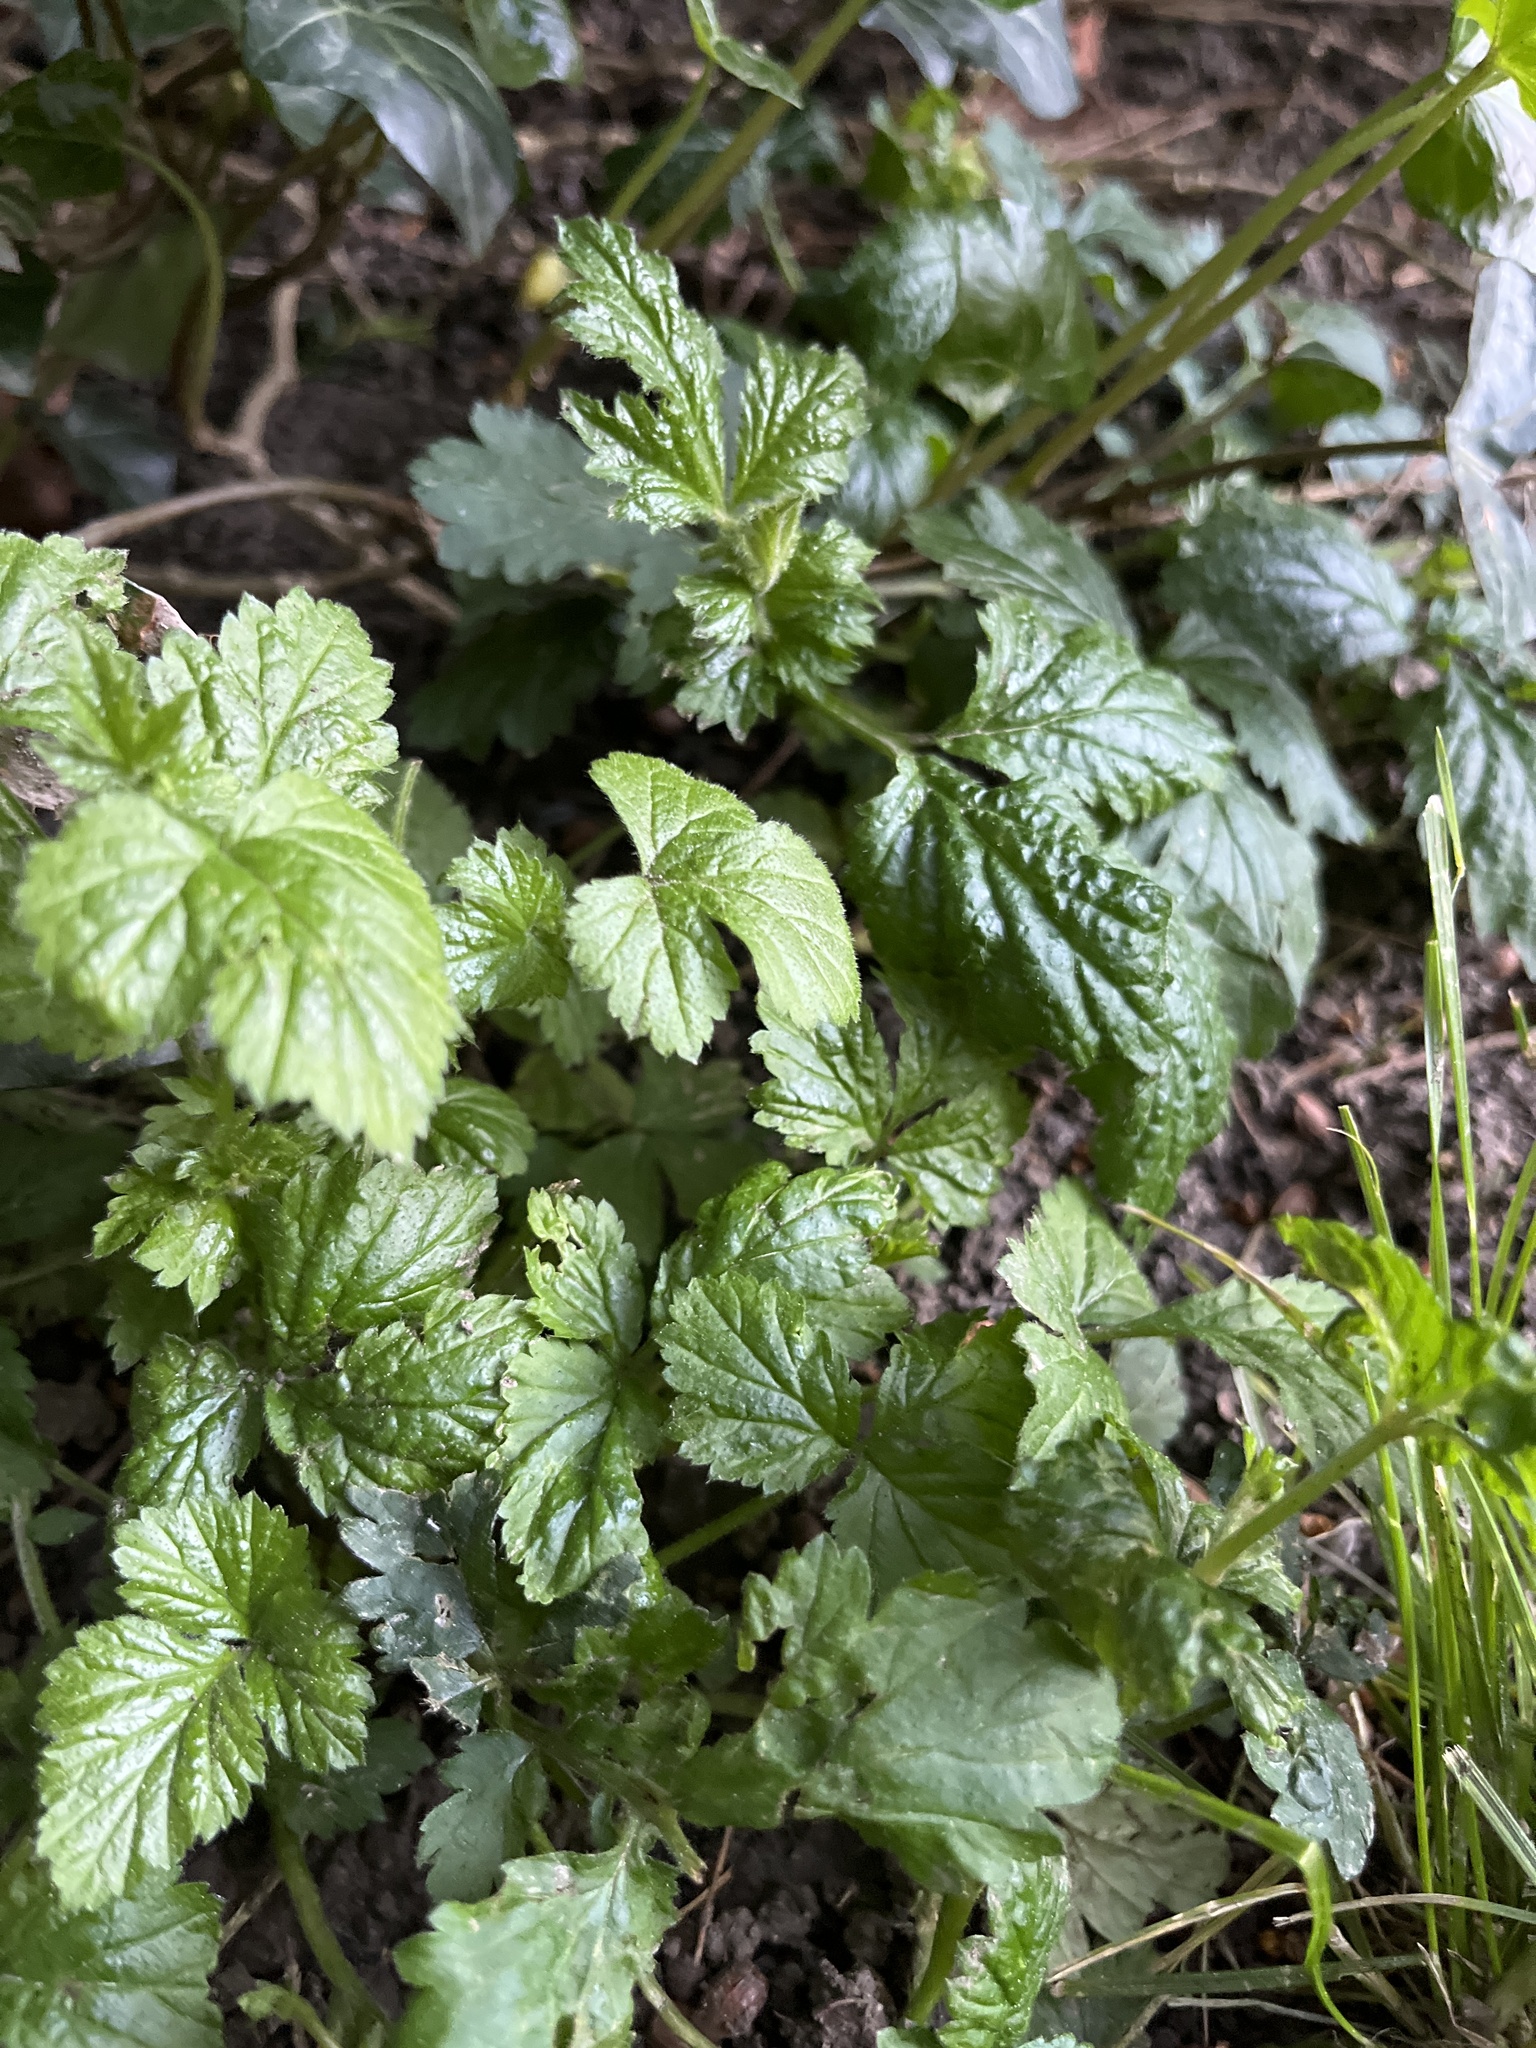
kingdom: Plantae
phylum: Tracheophyta
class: Magnoliopsida
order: Rosales
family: Rosaceae
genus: Geum
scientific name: Geum urbanum
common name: Wood avens
